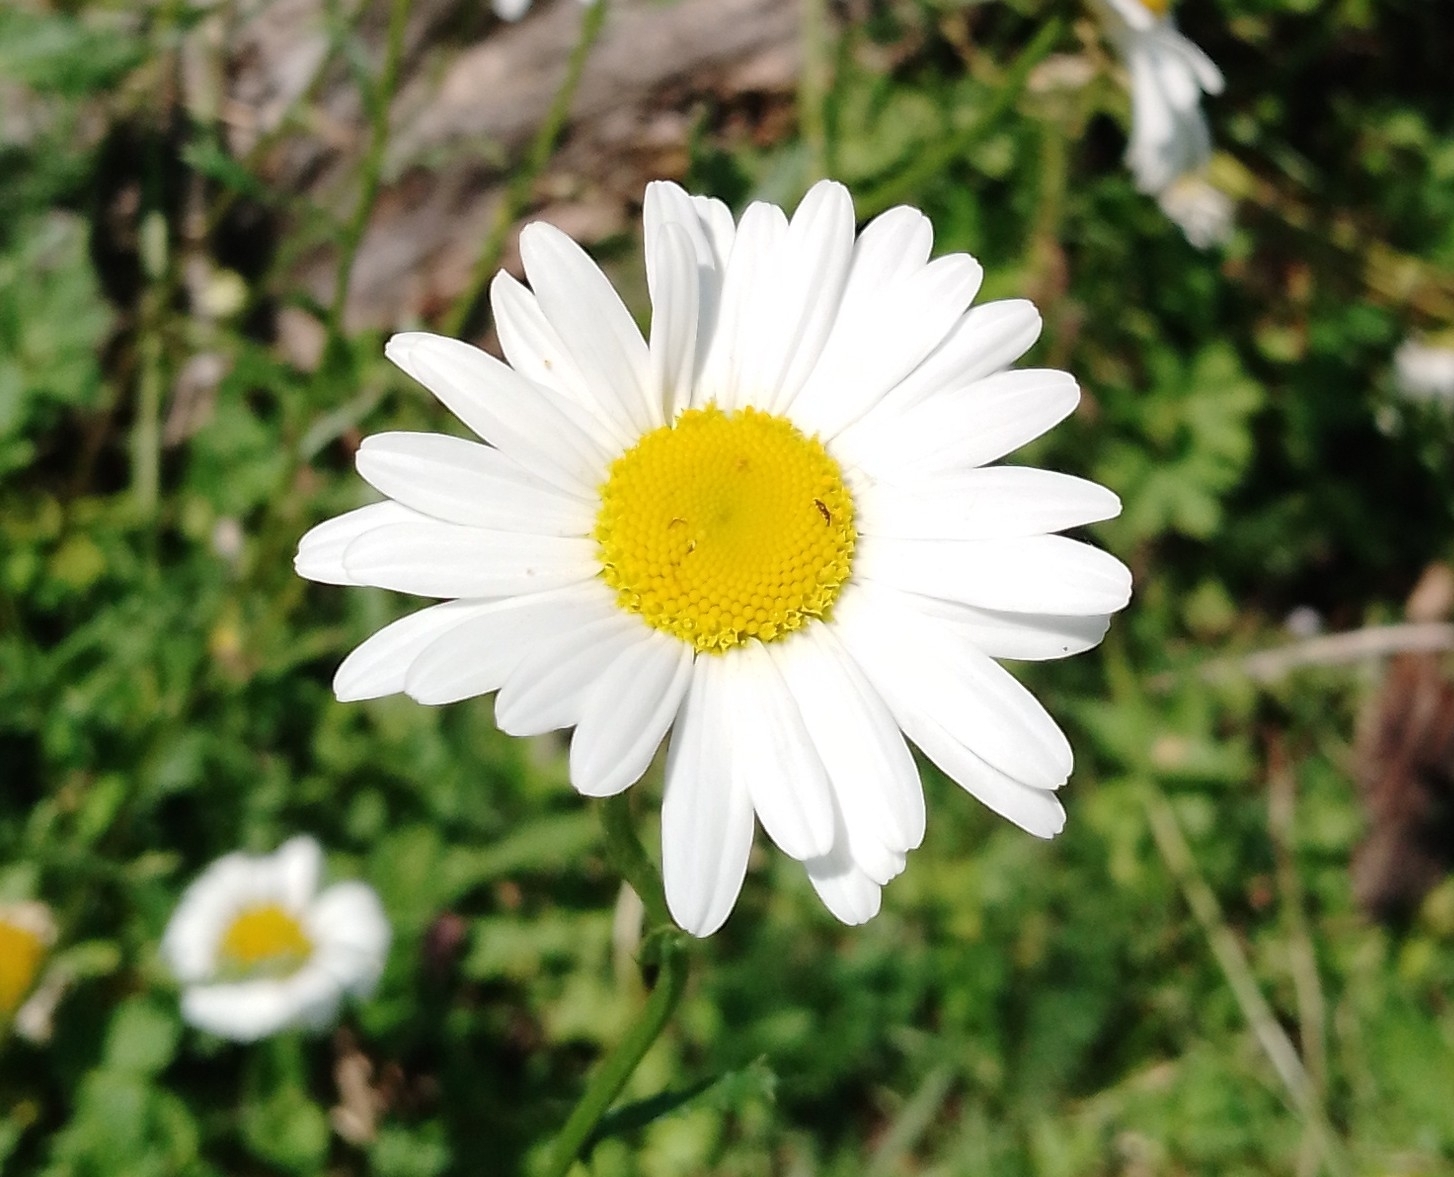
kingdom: Plantae
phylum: Tracheophyta
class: Magnoliopsida
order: Asterales
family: Asteraceae
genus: Leucanthemum
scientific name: Leucanthemum vulgare
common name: Oxeye daisy
